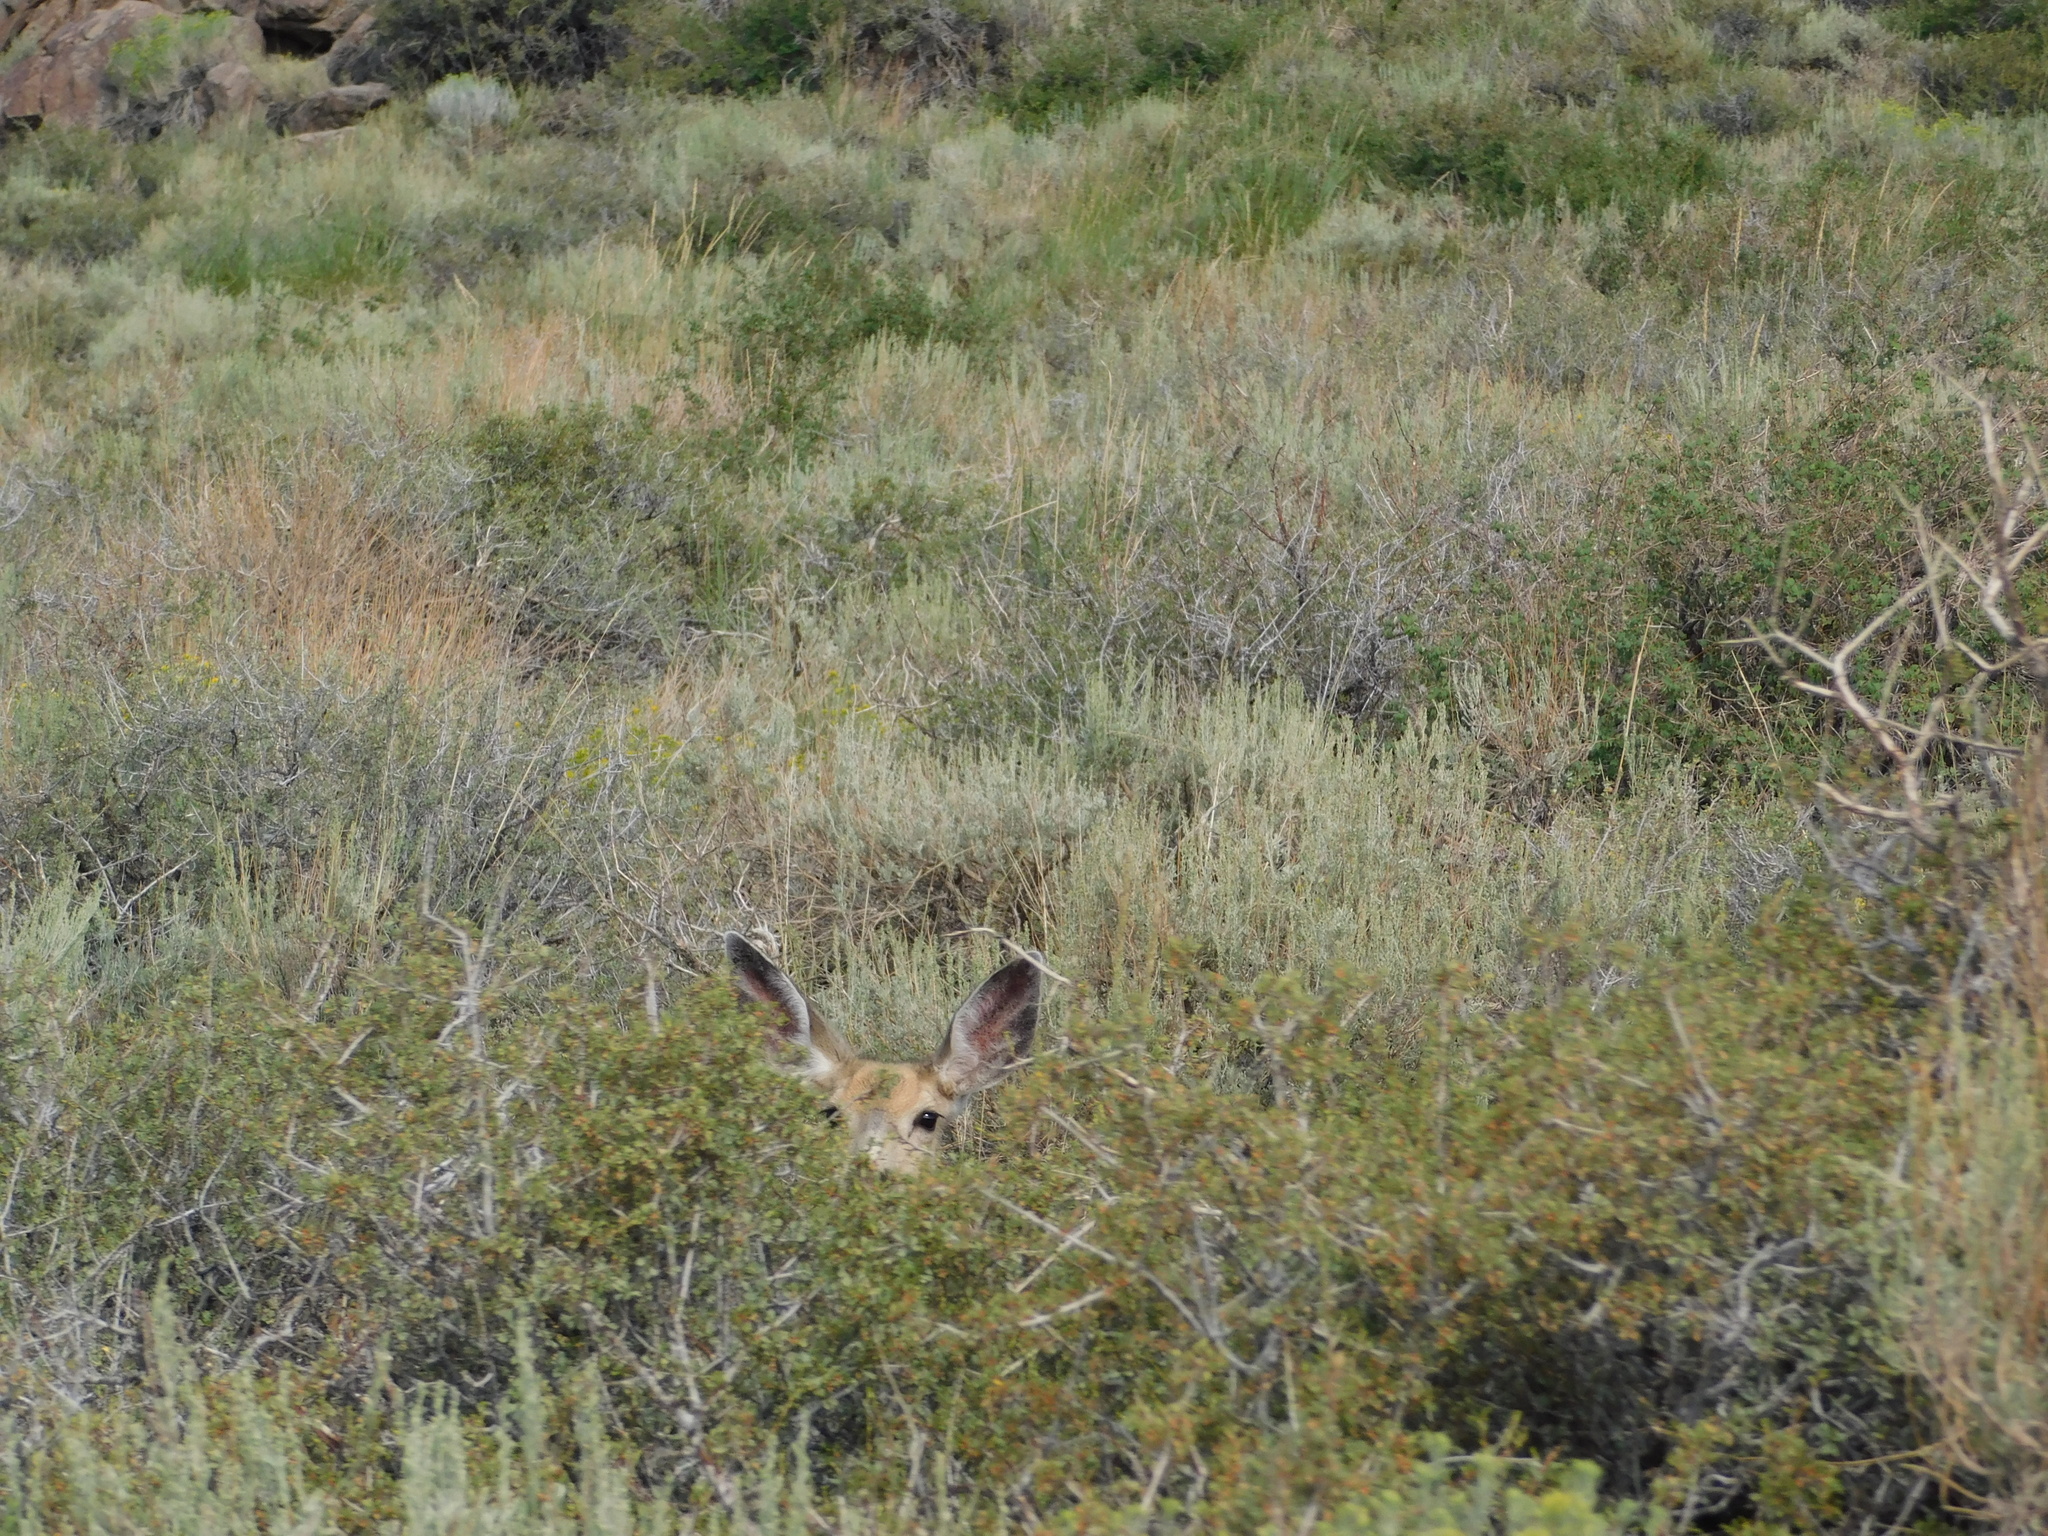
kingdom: Animalia
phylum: Chordata
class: Mammalia
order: Artiodactyla
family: Cervidae
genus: Odocoileus
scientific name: Odocoileus hemionus
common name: Mule deer
